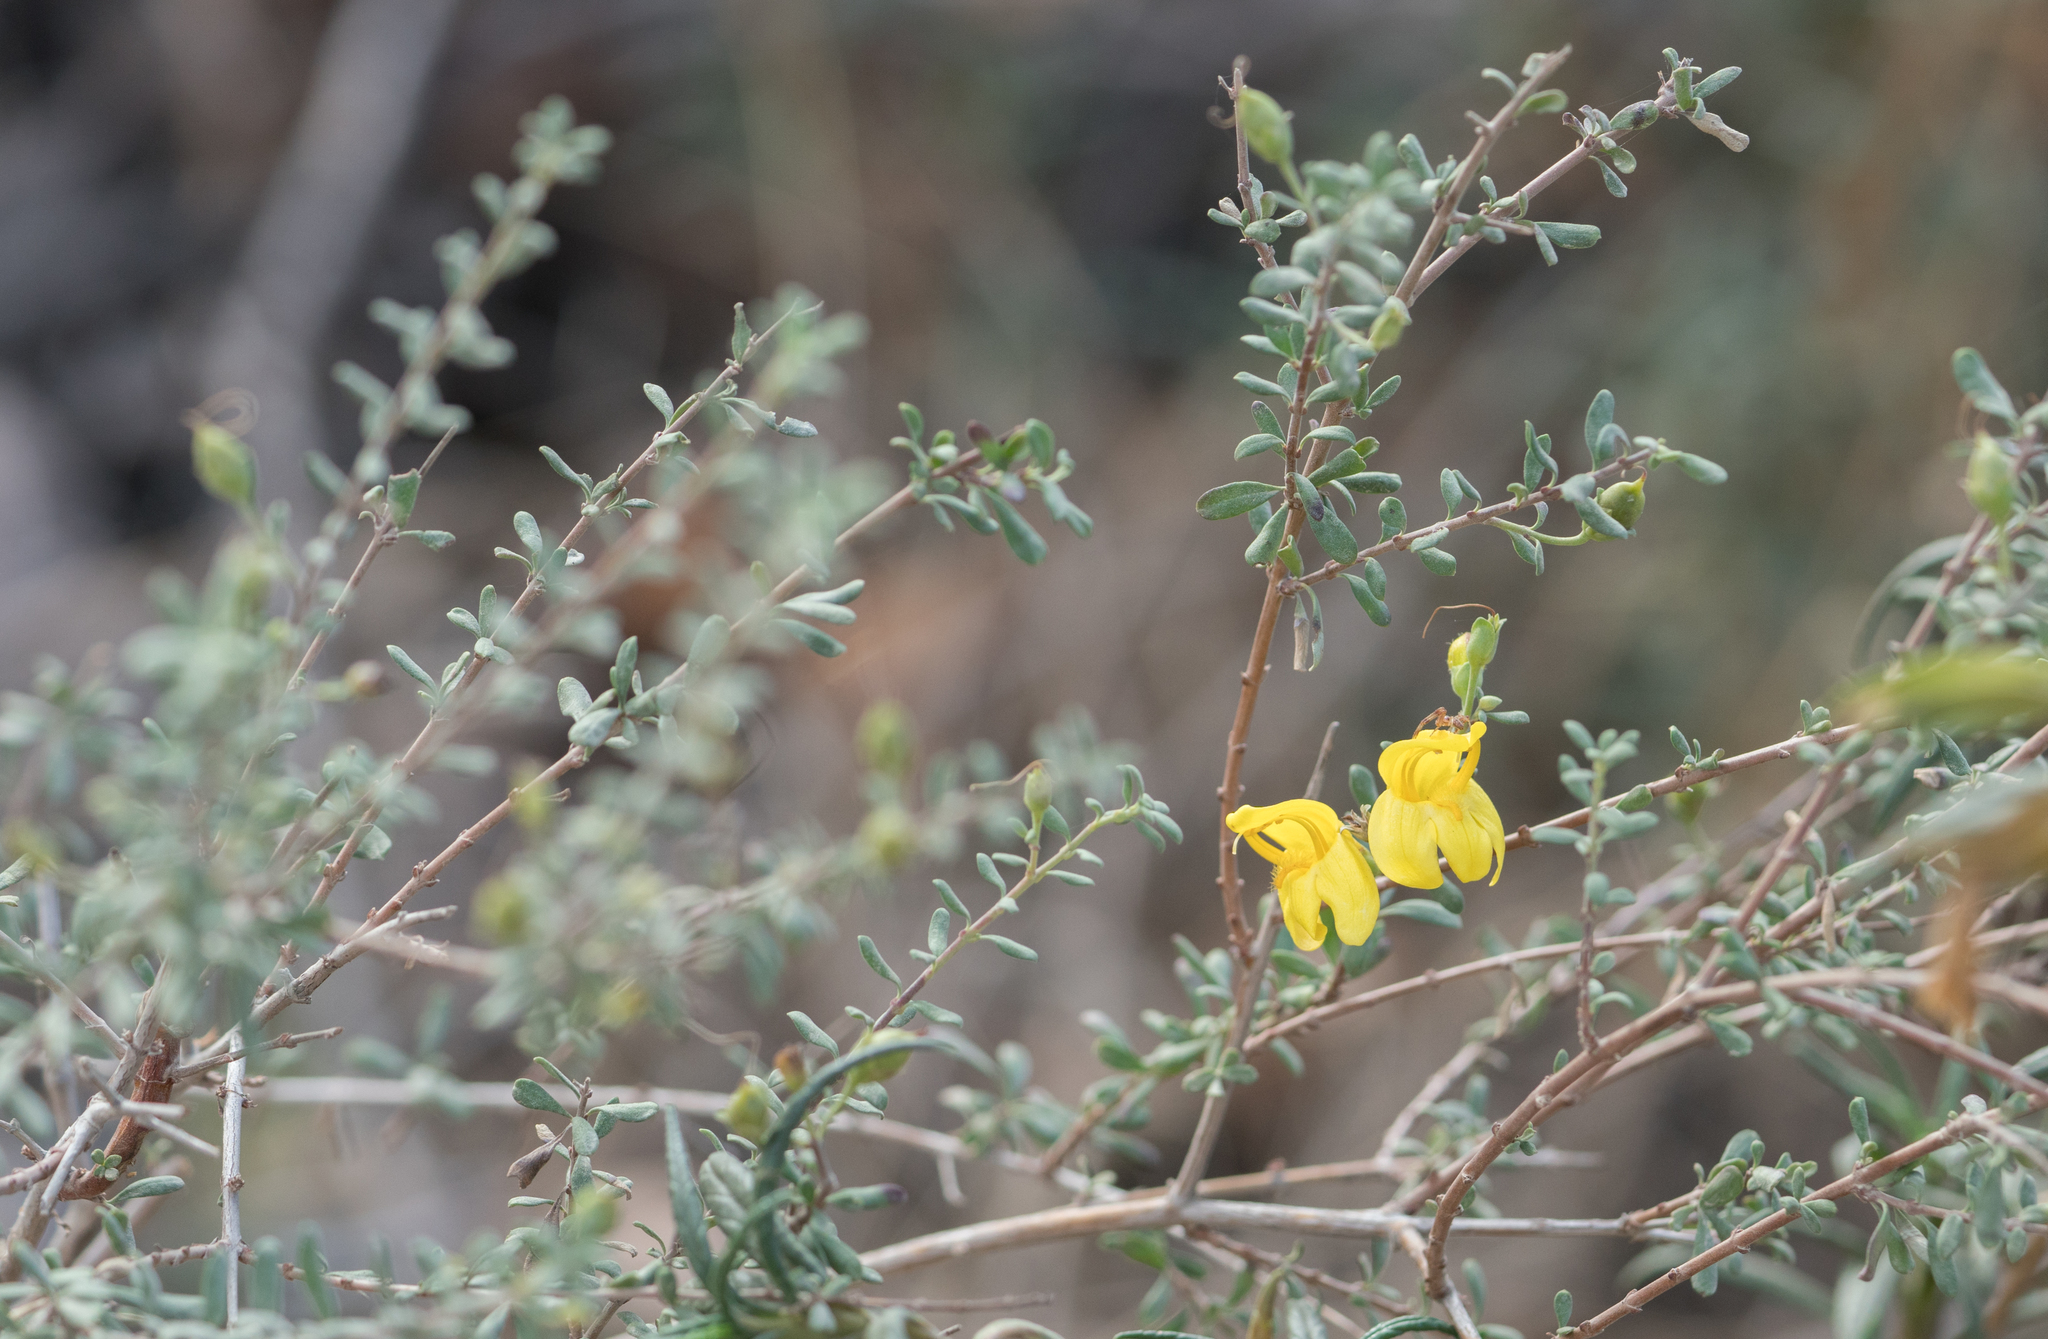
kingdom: Plantae
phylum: Tracheophyta
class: Magnoliopsida
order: Lamiales
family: Plantaginaceae
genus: Keckiella
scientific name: Keckiella antirrhinoides
